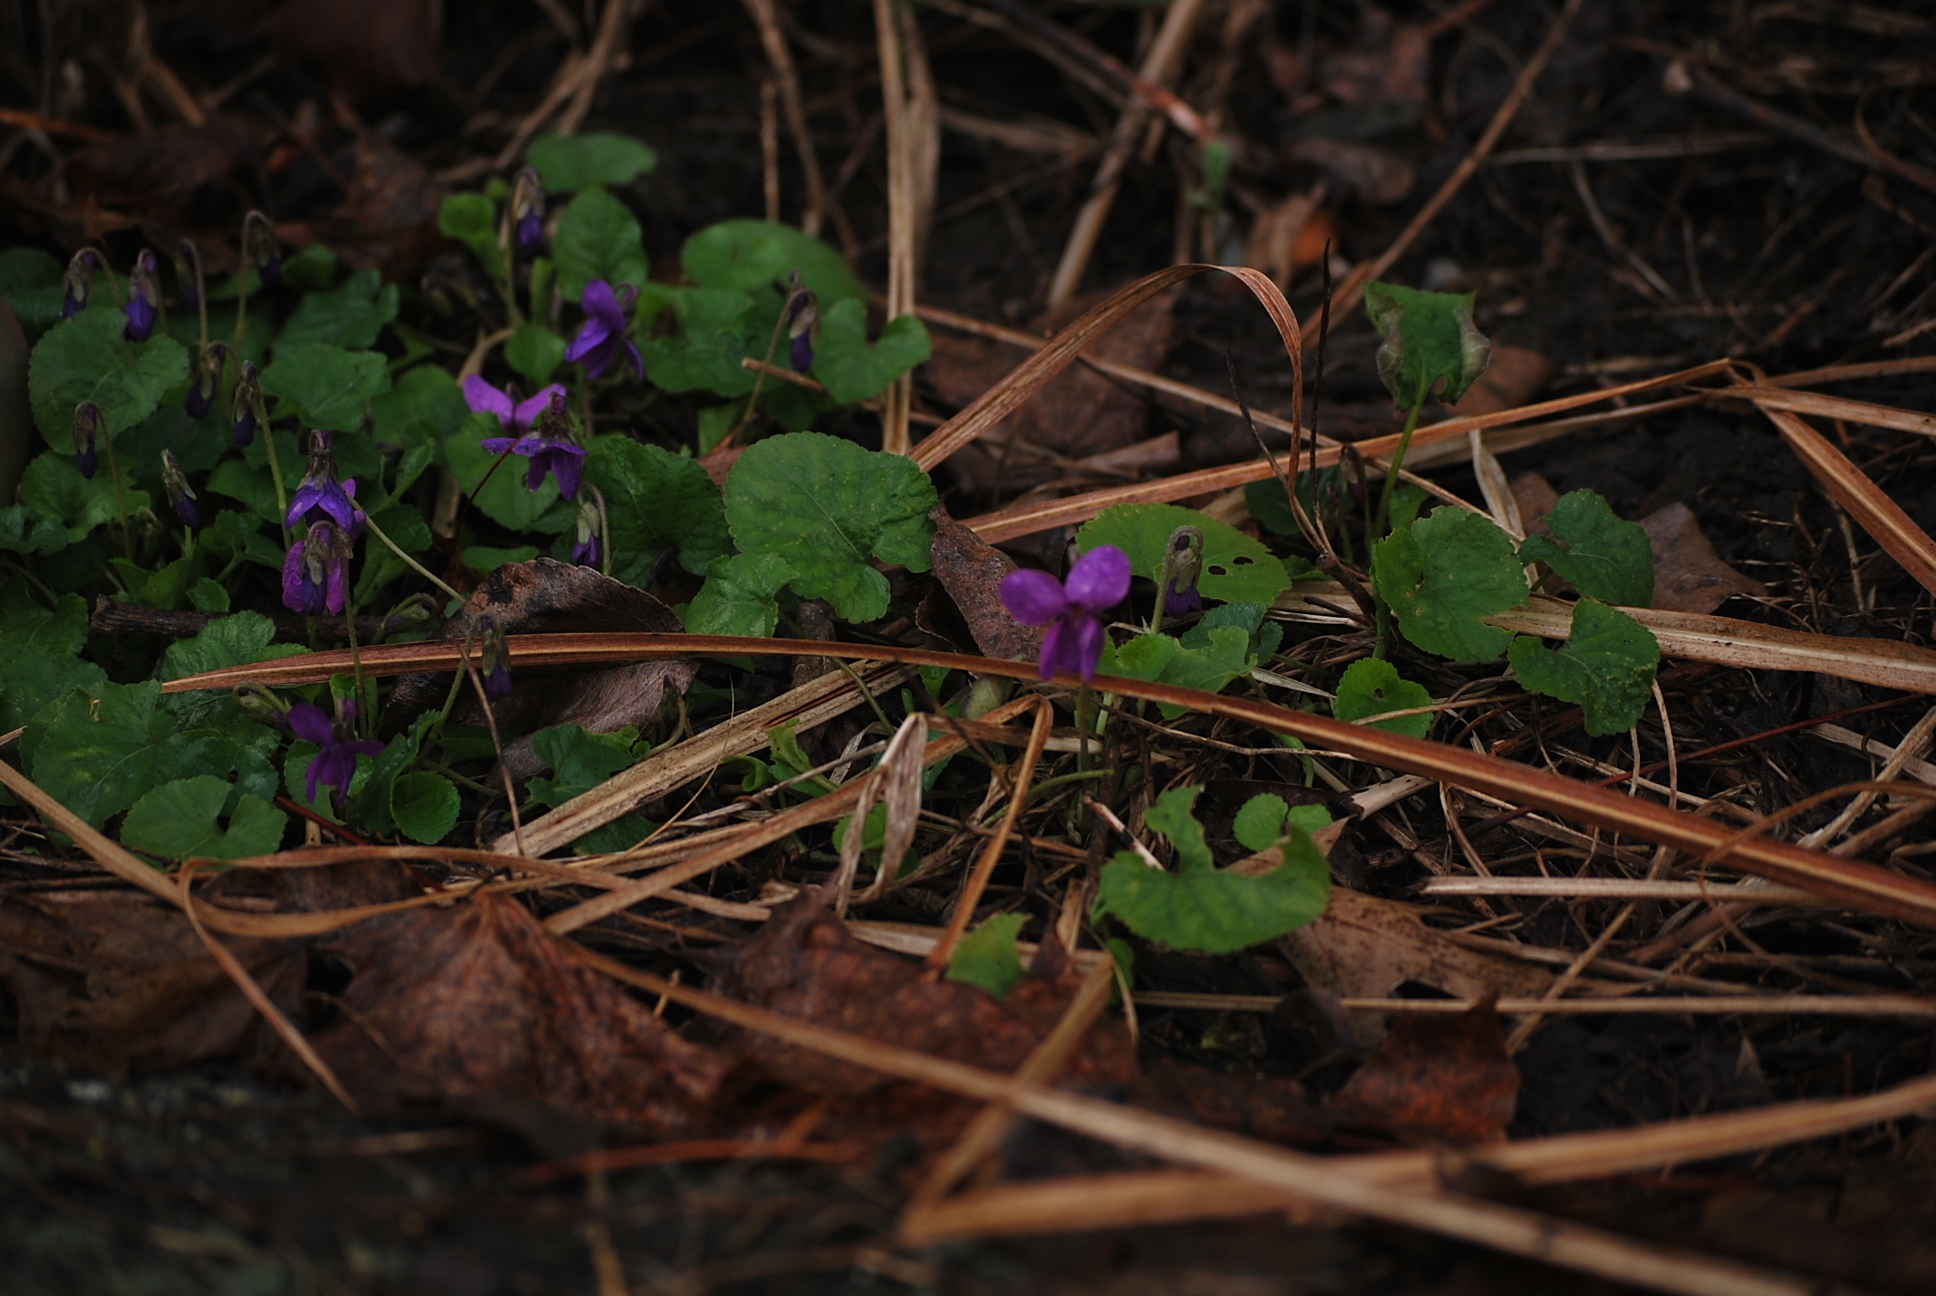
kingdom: Plantae
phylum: Tracheophyta
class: Magnoliopsida
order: Malpighiales
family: Violaceae
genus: Viola
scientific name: Viola odorata
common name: Sweet violet
